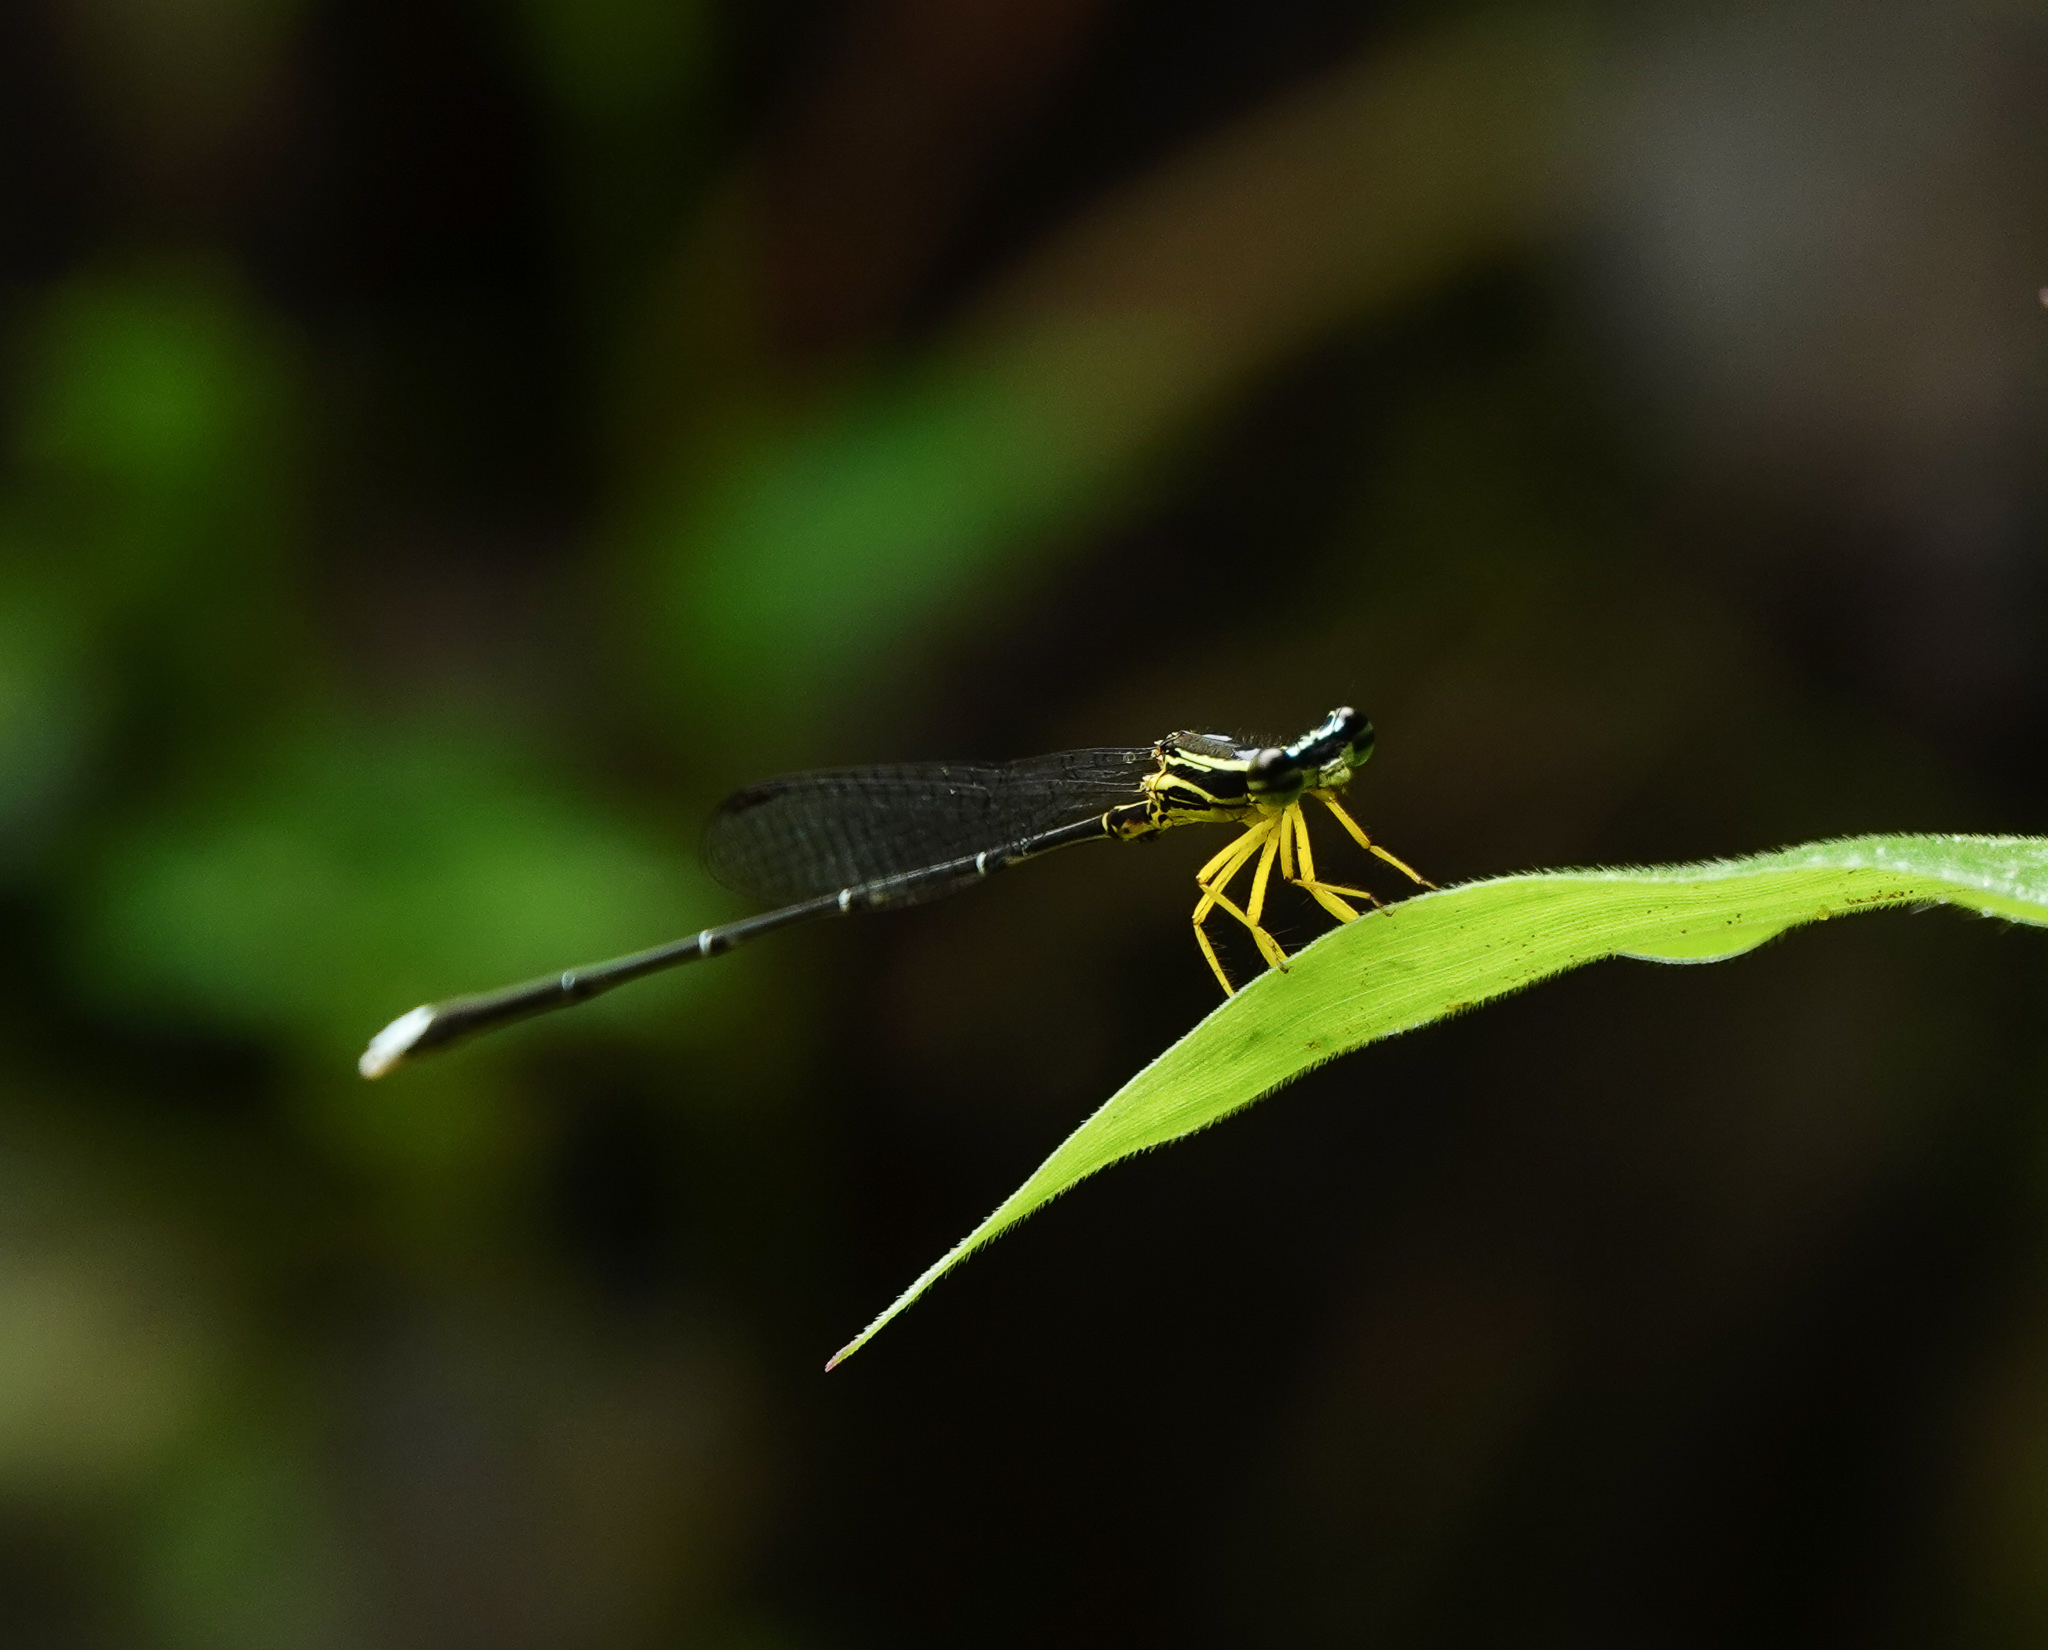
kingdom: Animalia
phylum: Arthropoda
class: Insecta
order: Odonata
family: Platycnemididae
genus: Copera
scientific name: Copera marginipes
